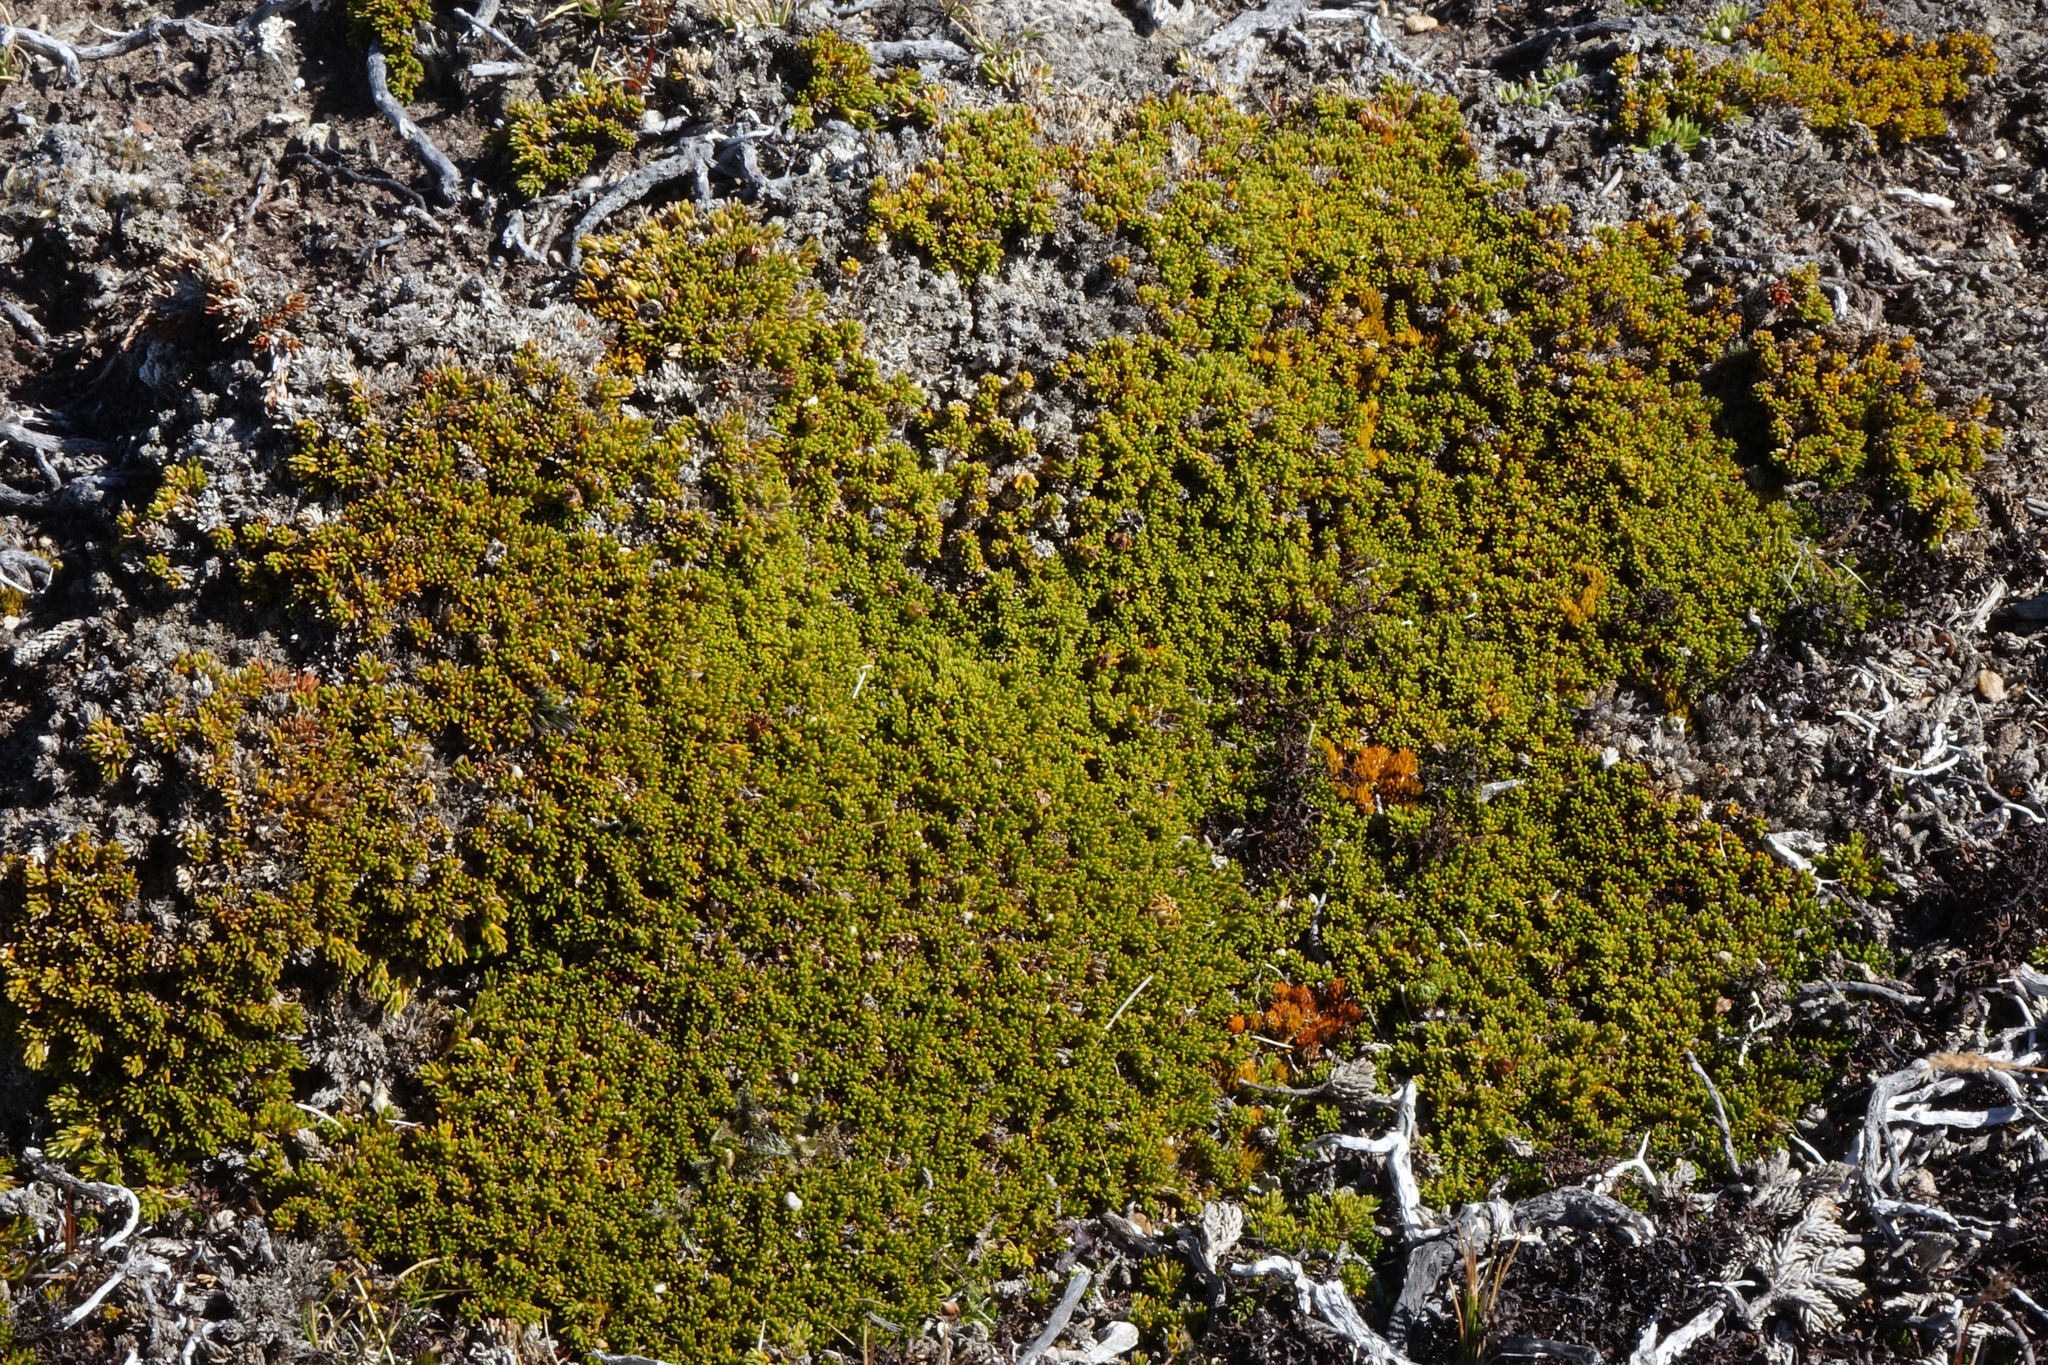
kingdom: Plantae
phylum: Tracheophyta
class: Magnoliopsida
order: Ericales
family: Ericaceae
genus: Dracophyllum
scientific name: Dracophyllum muscoides
